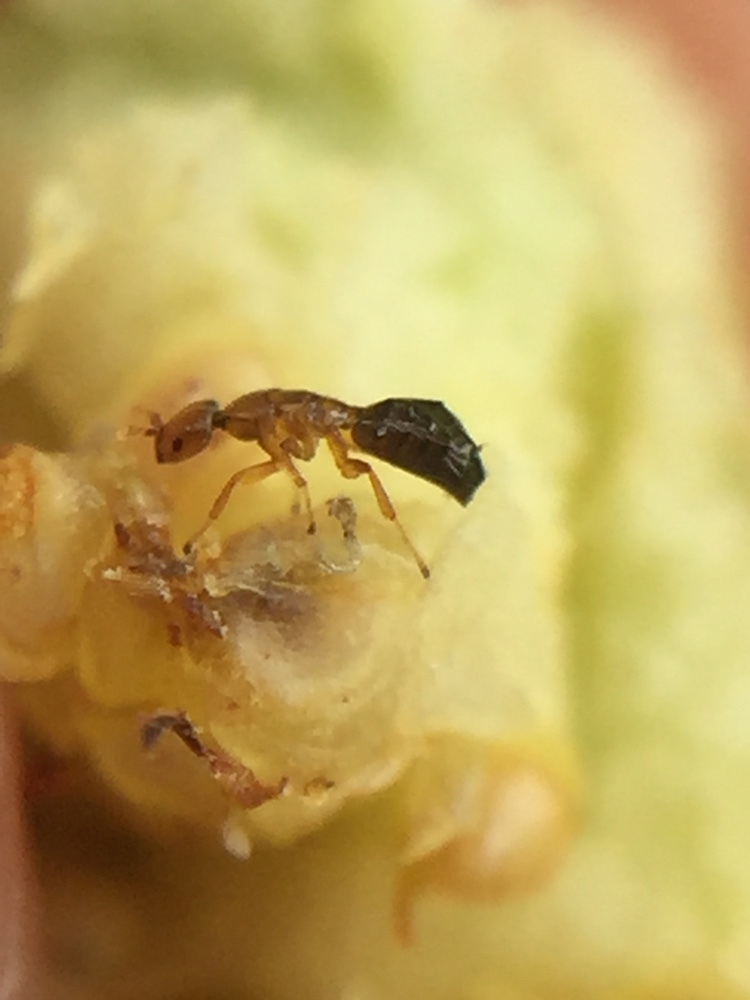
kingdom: Animalia
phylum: Arthropoda
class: Insecta
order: Hymenoptera
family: Agaonidae
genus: Pseudidarnes
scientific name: Pseudidarnes minerva
